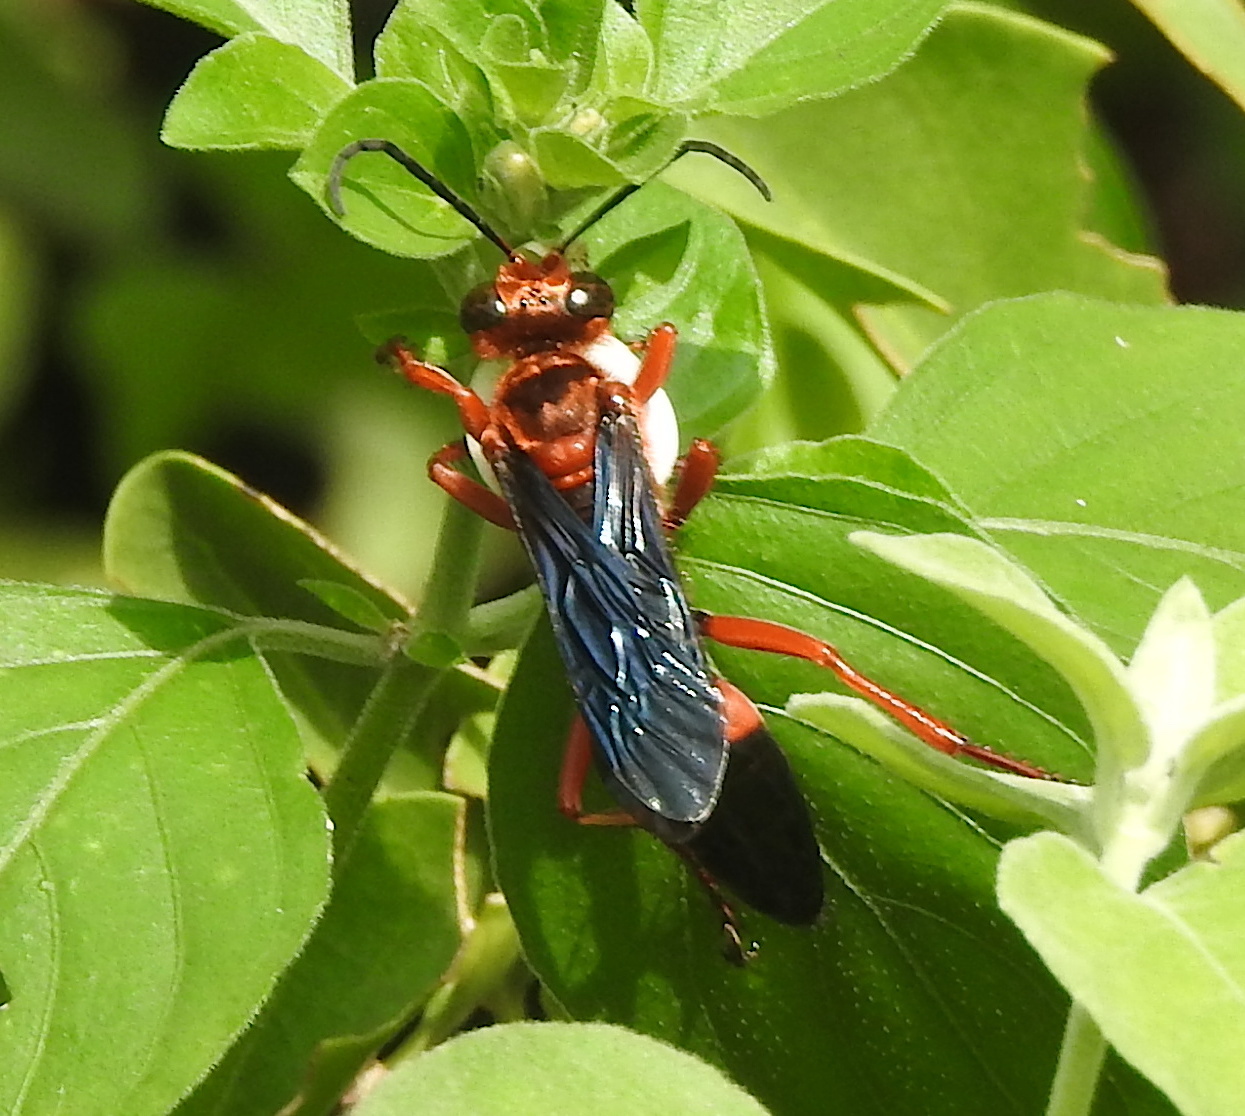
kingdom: Animalia
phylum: Arthropoda
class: Insecta
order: Hymenoptera
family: Sphecidae
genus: Sphex
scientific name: Sphex sericeus
